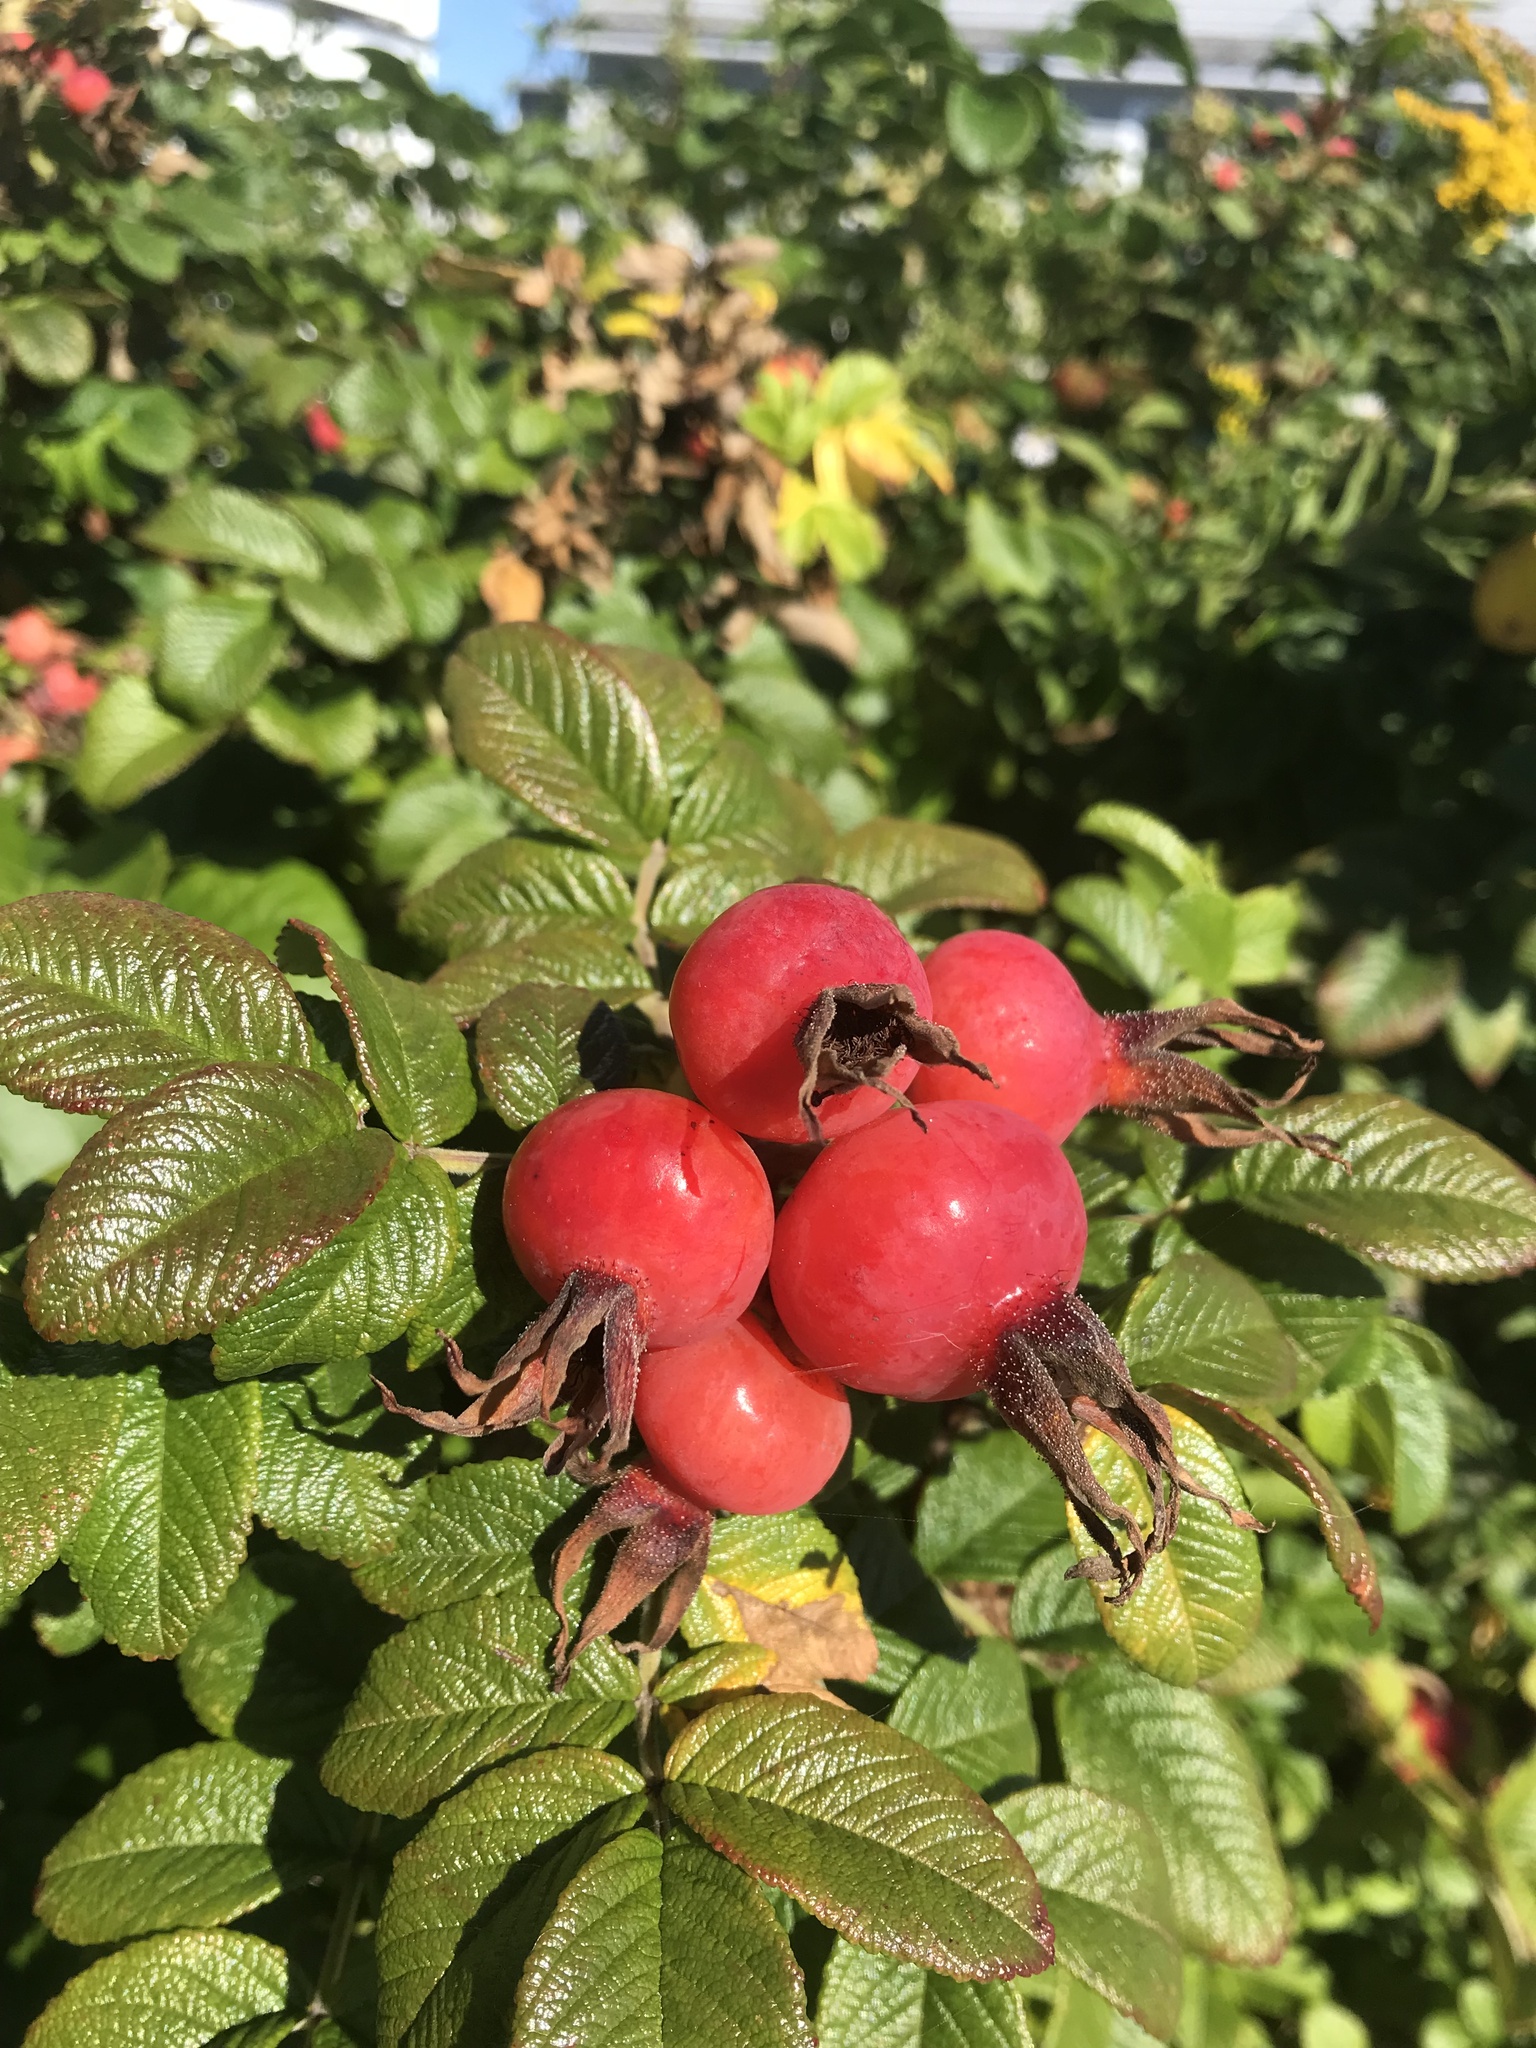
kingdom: Plantae
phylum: Tracheophyta
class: Magnoliopsida
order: Rosales
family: Rosaceae
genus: Rosa
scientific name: Rosa rugosa
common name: Japanese rose
